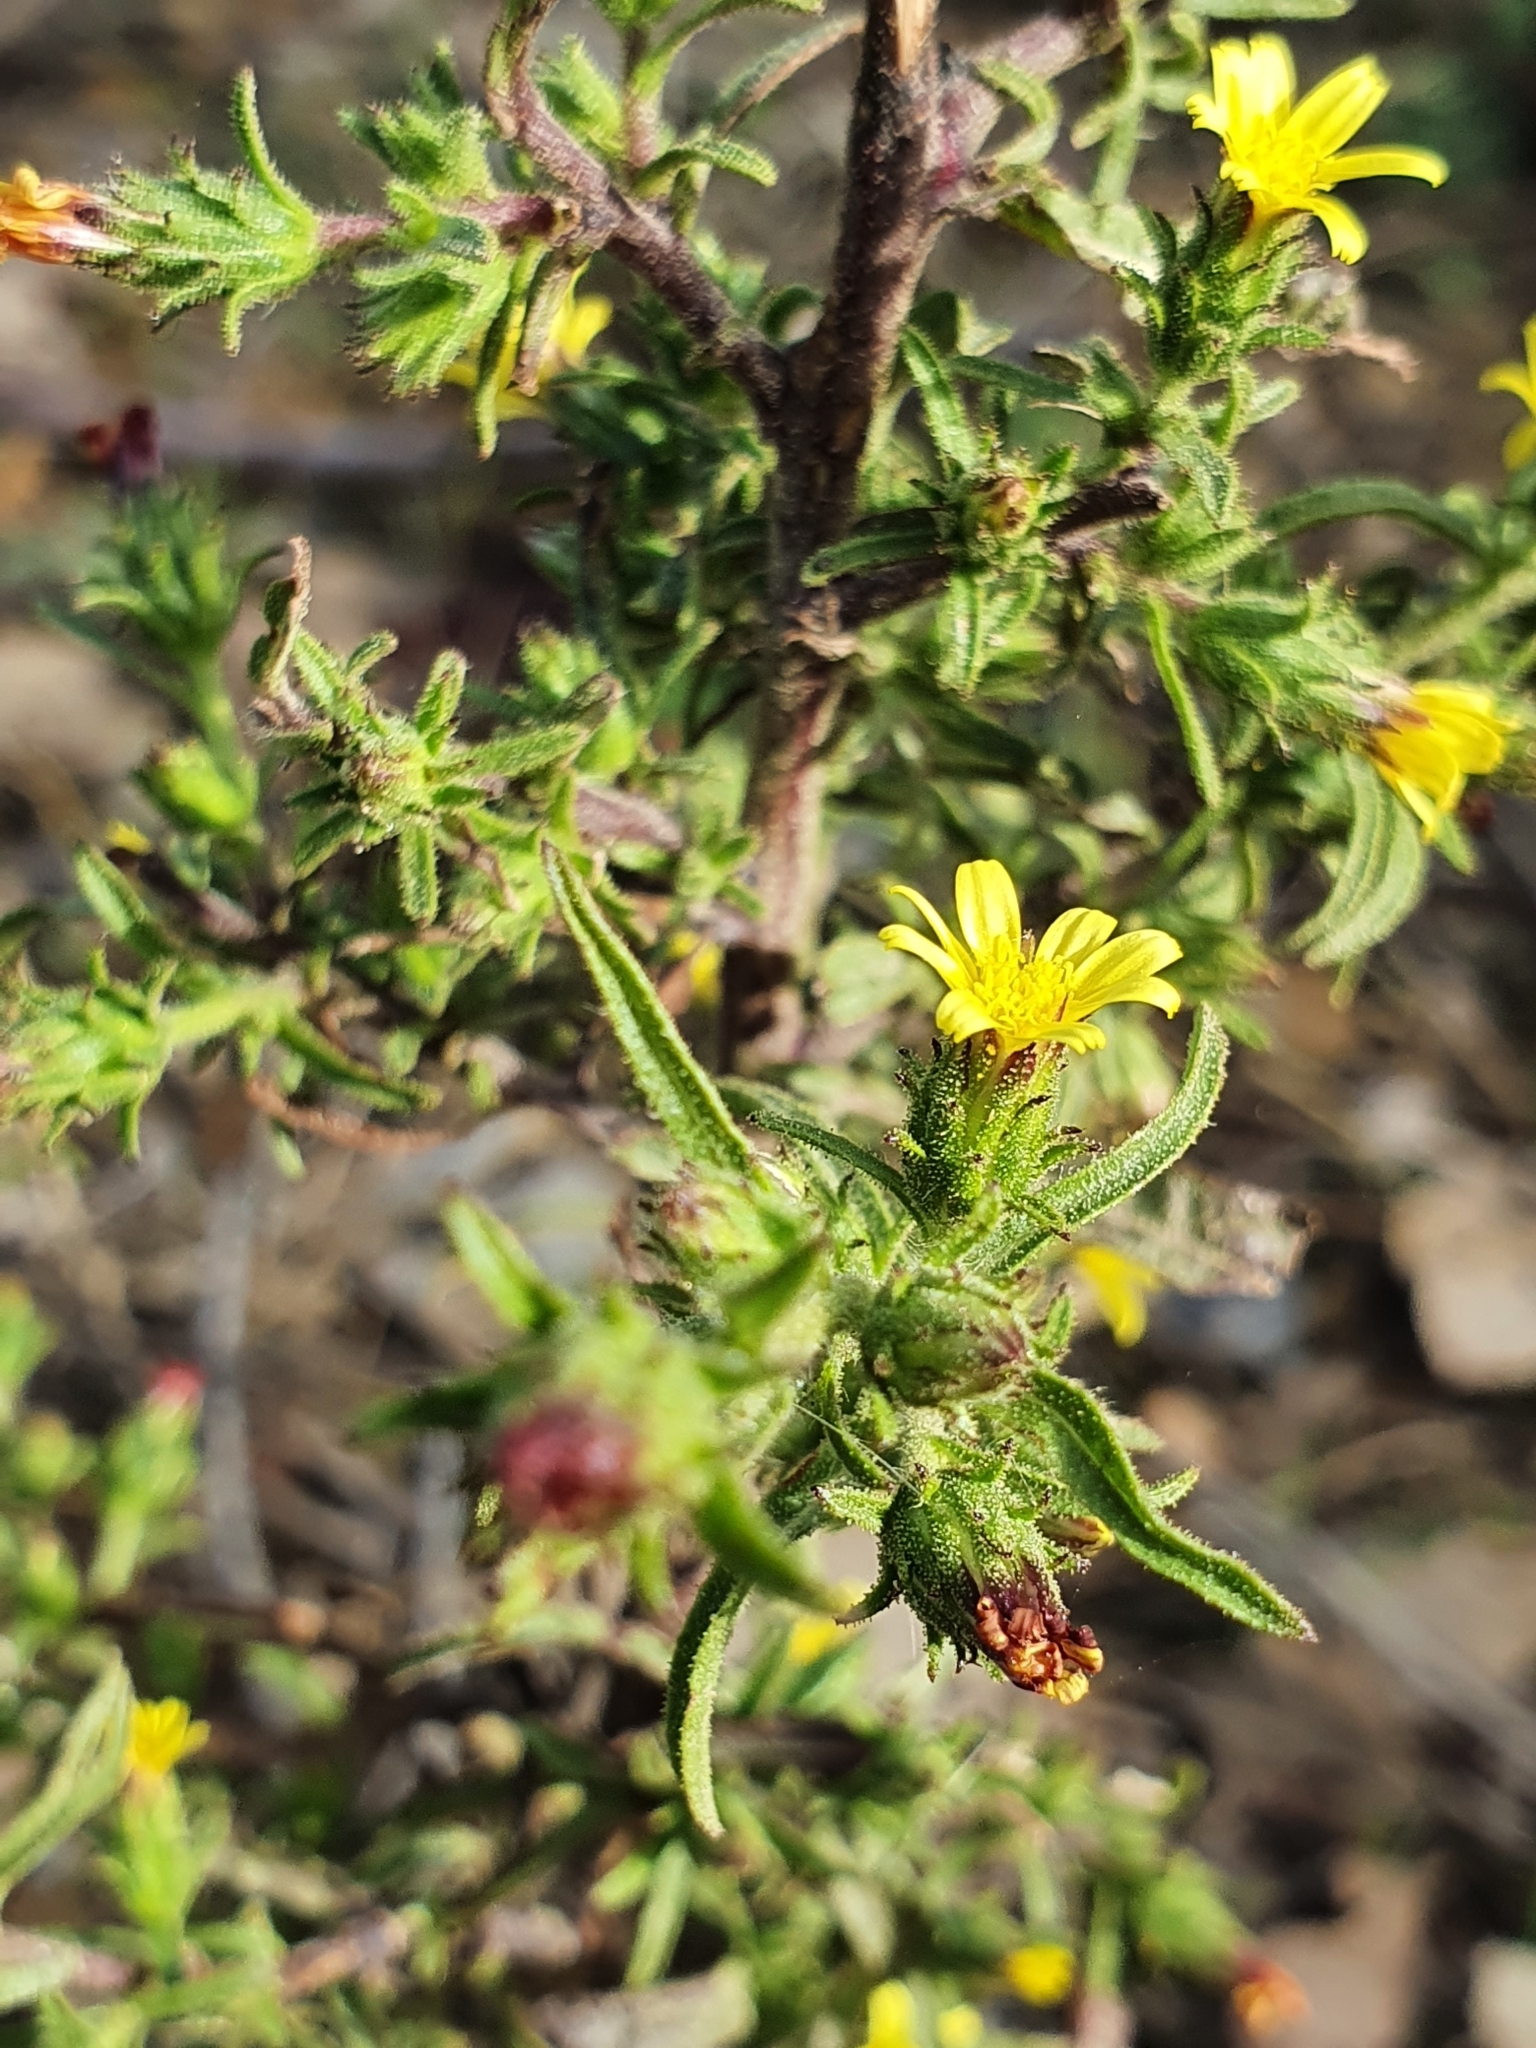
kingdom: Plantae
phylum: Tracheophyta
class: Magnoliopsida
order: Asterales
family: Asteraceae
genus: Dittrichia
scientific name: Dittrichia graveolens
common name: Stinking fleabane
